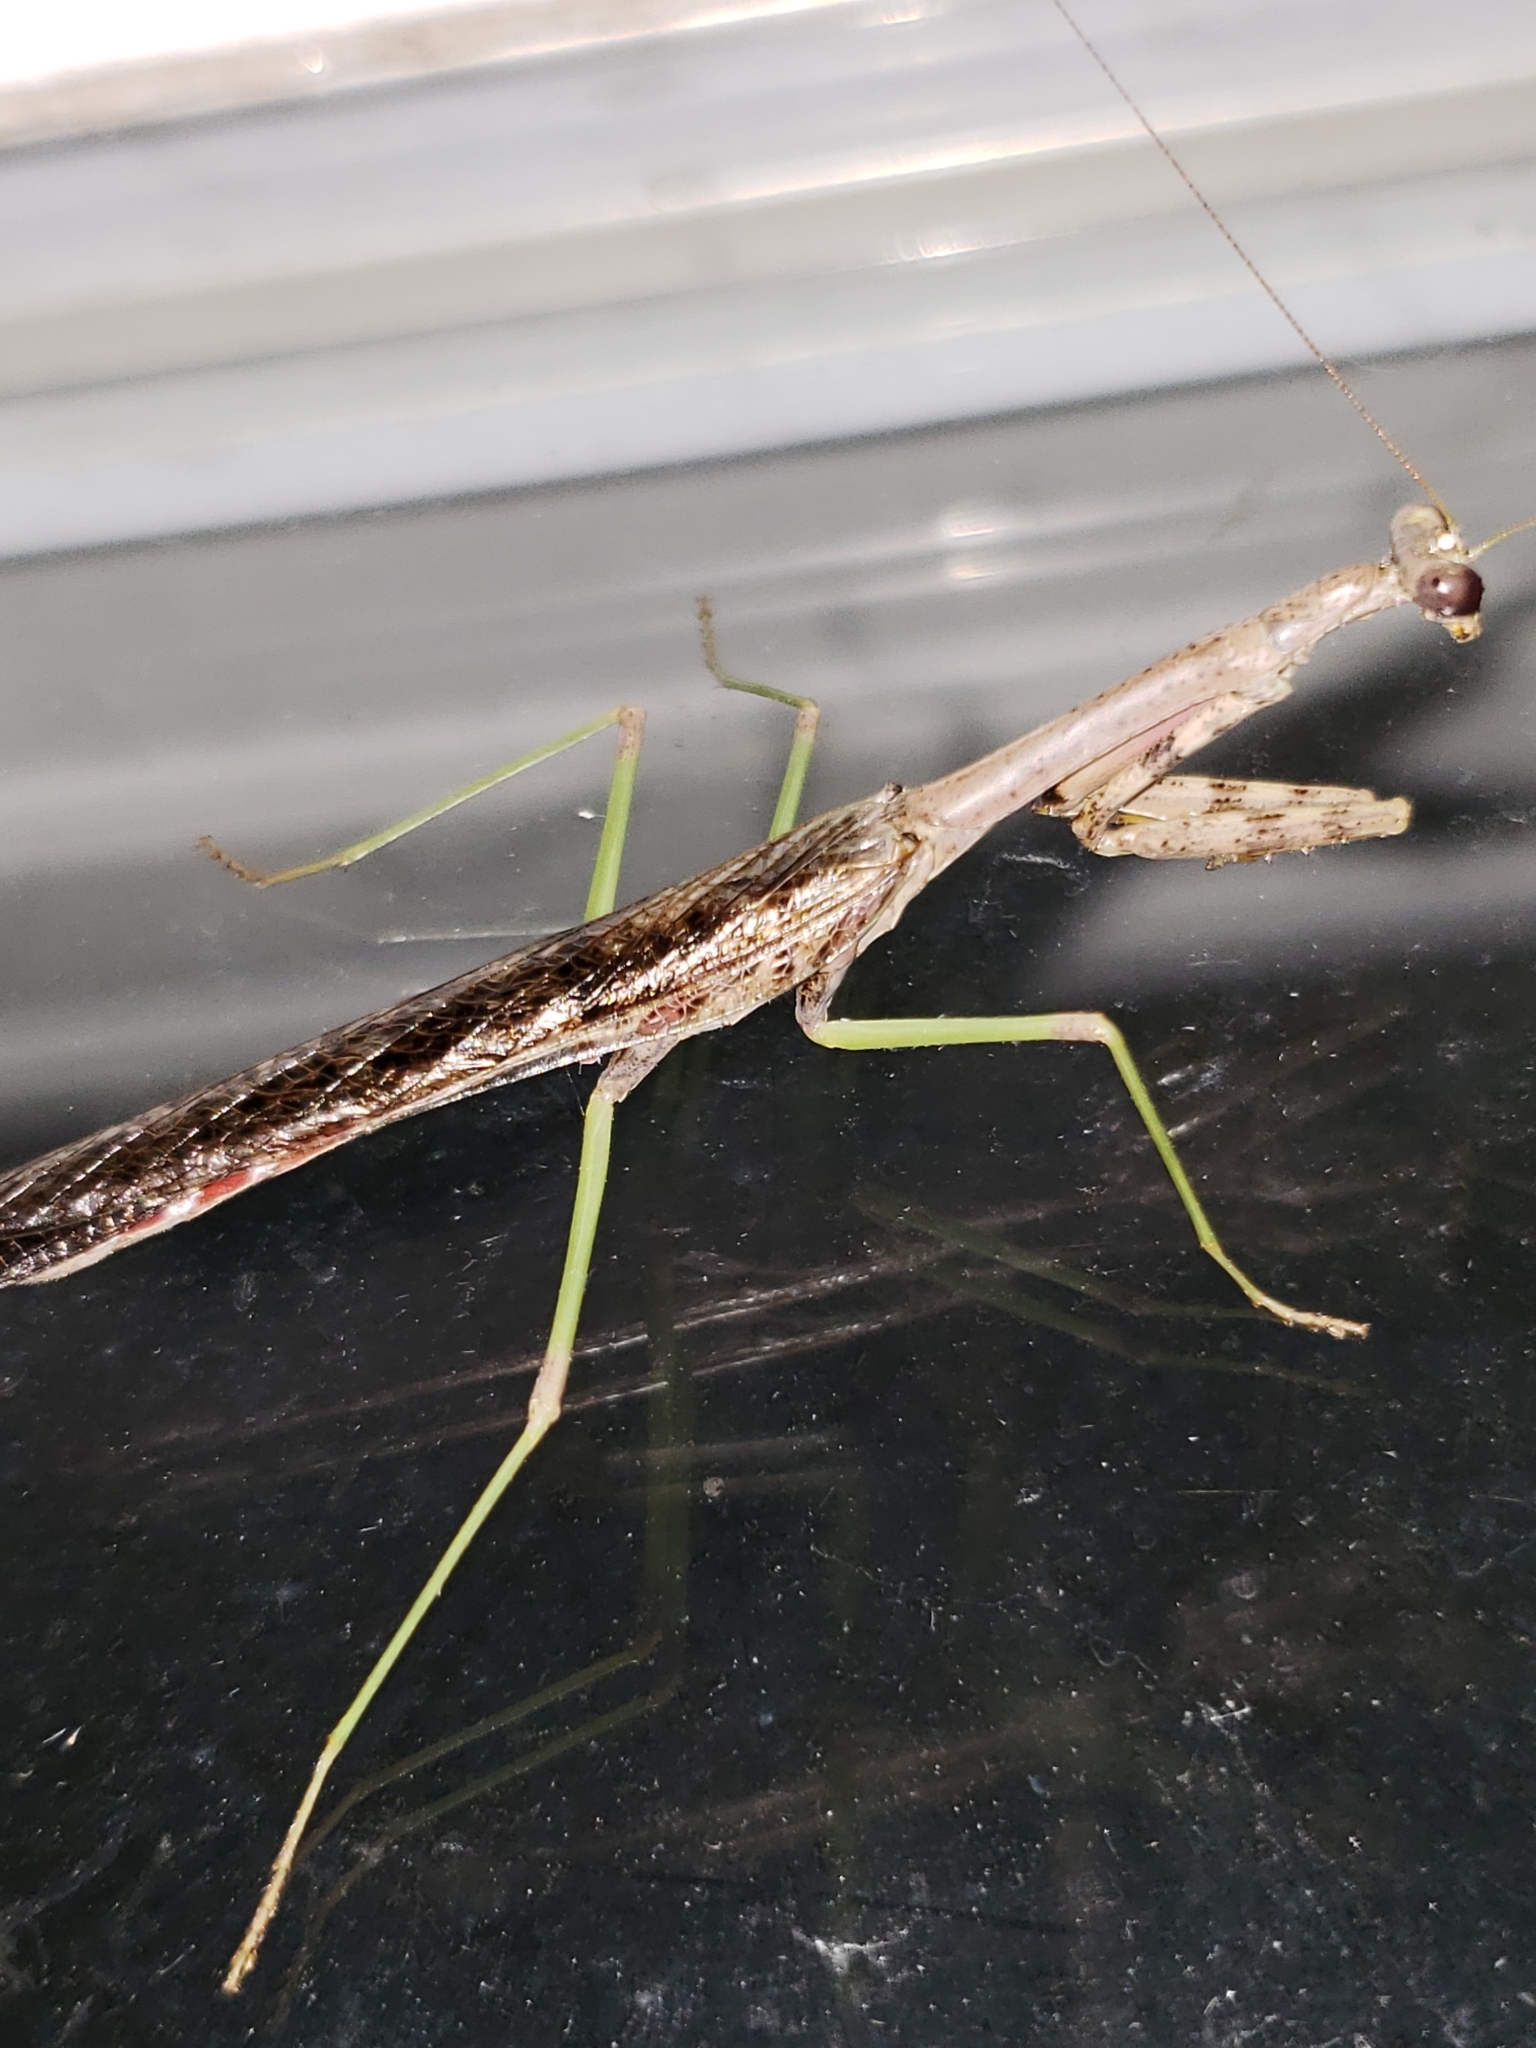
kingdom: Animalia
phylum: Arthropoda
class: Insecta
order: Mantodea
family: Mantidae
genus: Stagmomantis
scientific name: Stagmomantis carolina
